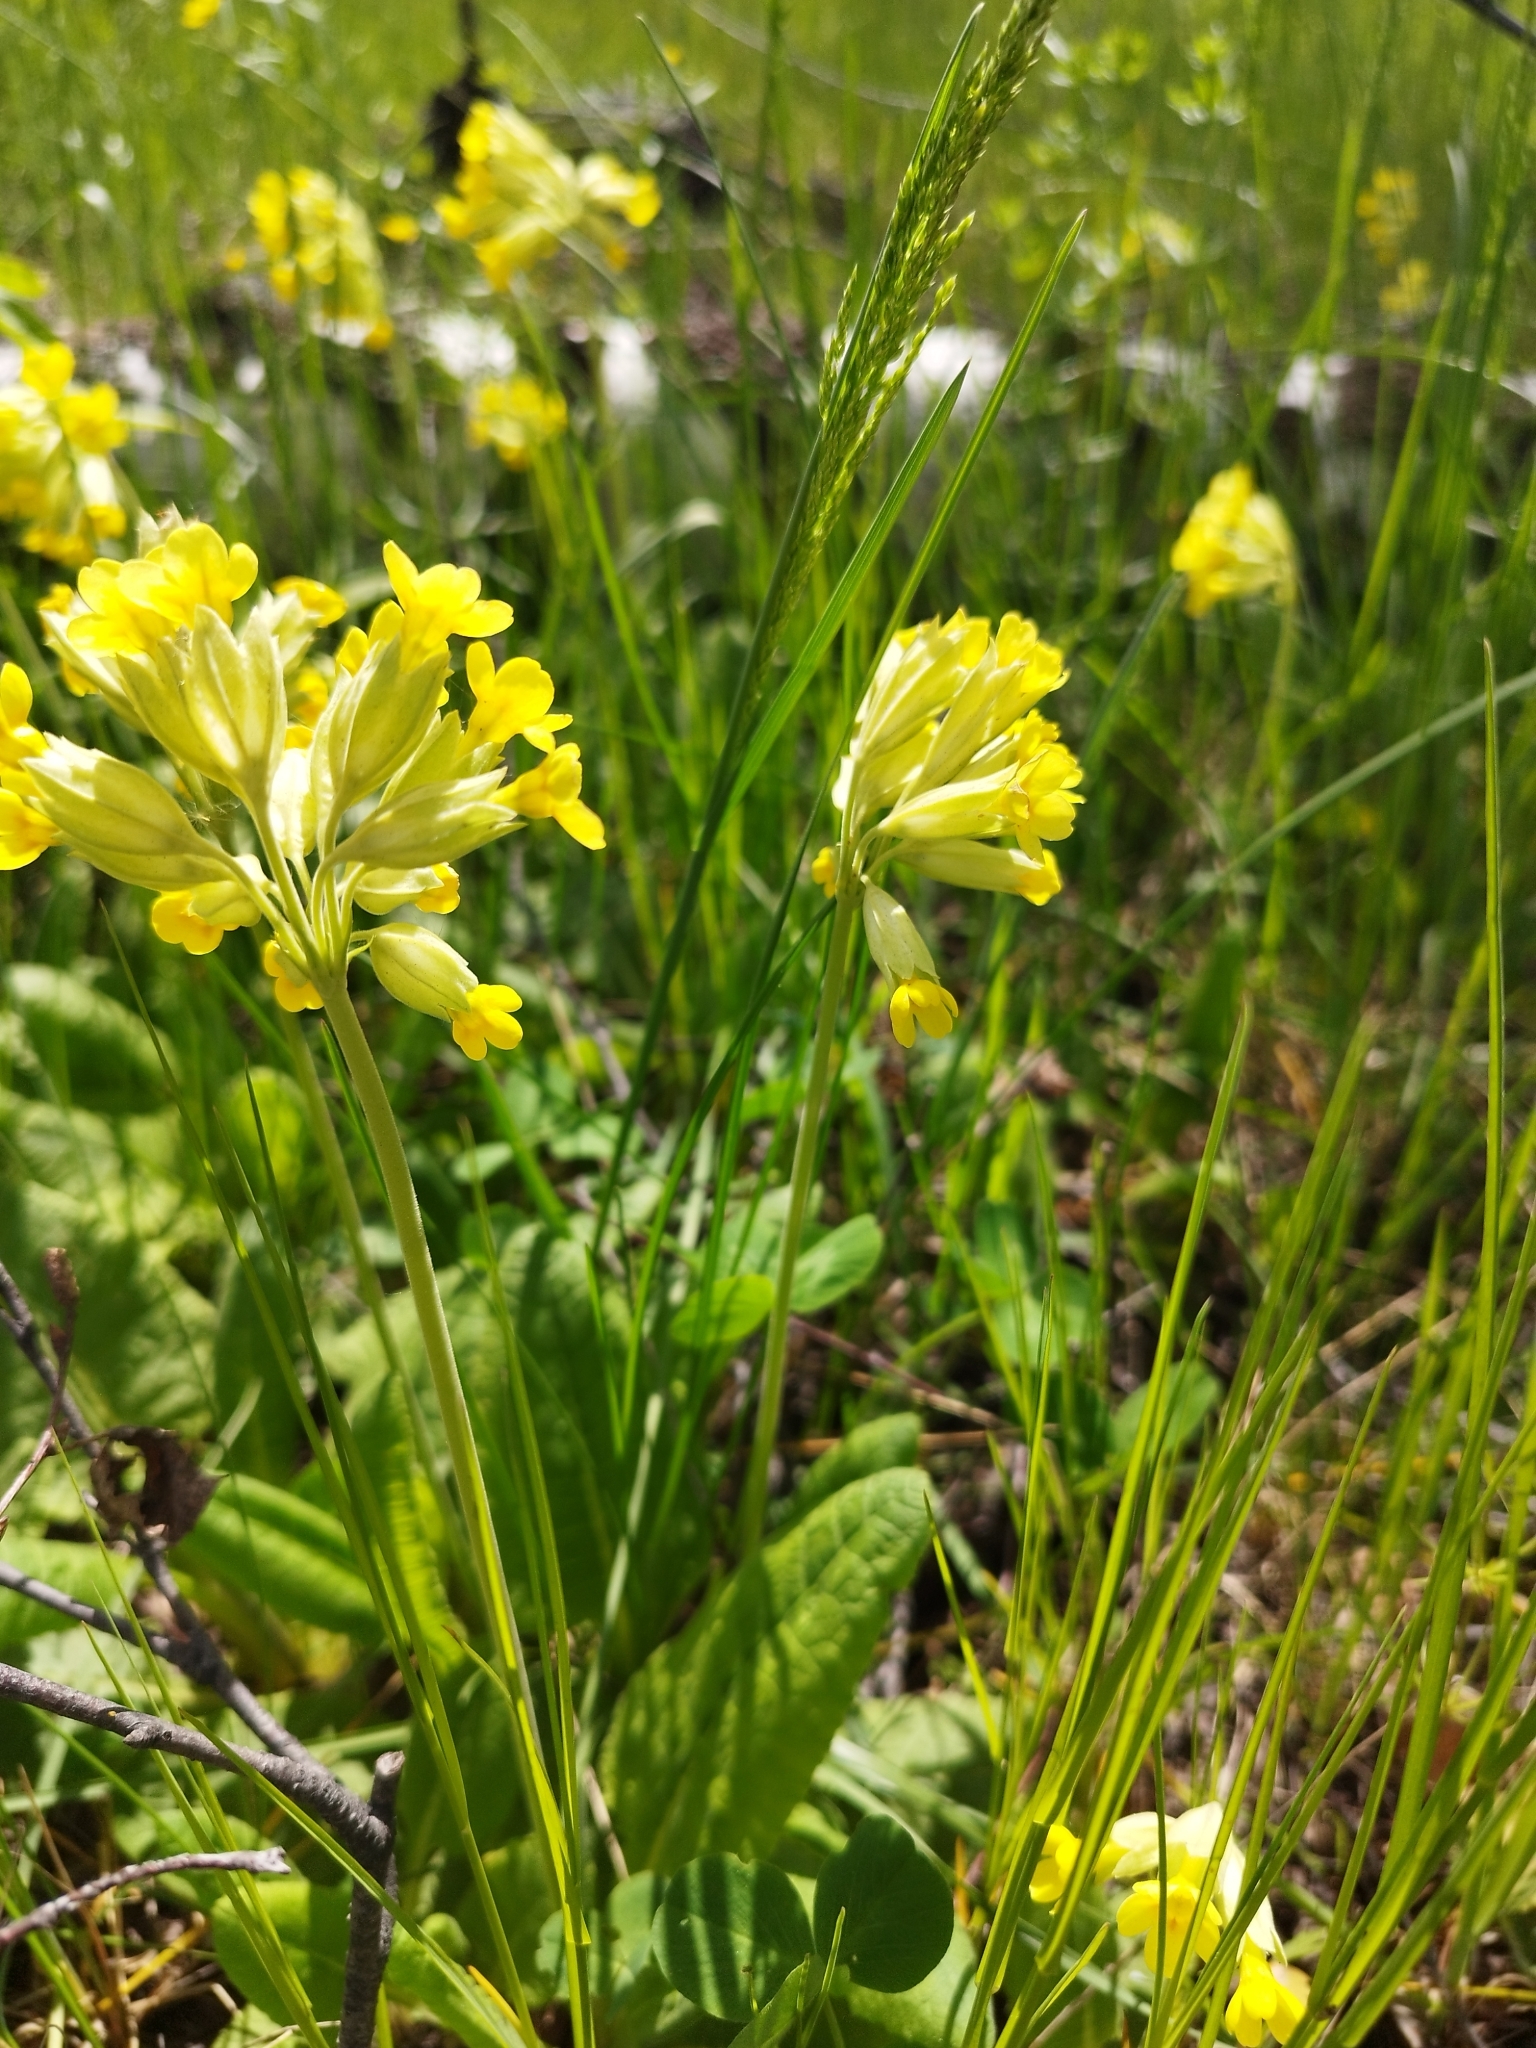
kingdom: Plantae
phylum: Tracheophyta
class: Magnoliopsida
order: Ericales
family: Primulaceae
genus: Primula
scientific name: Primula veris
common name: Cowslip
